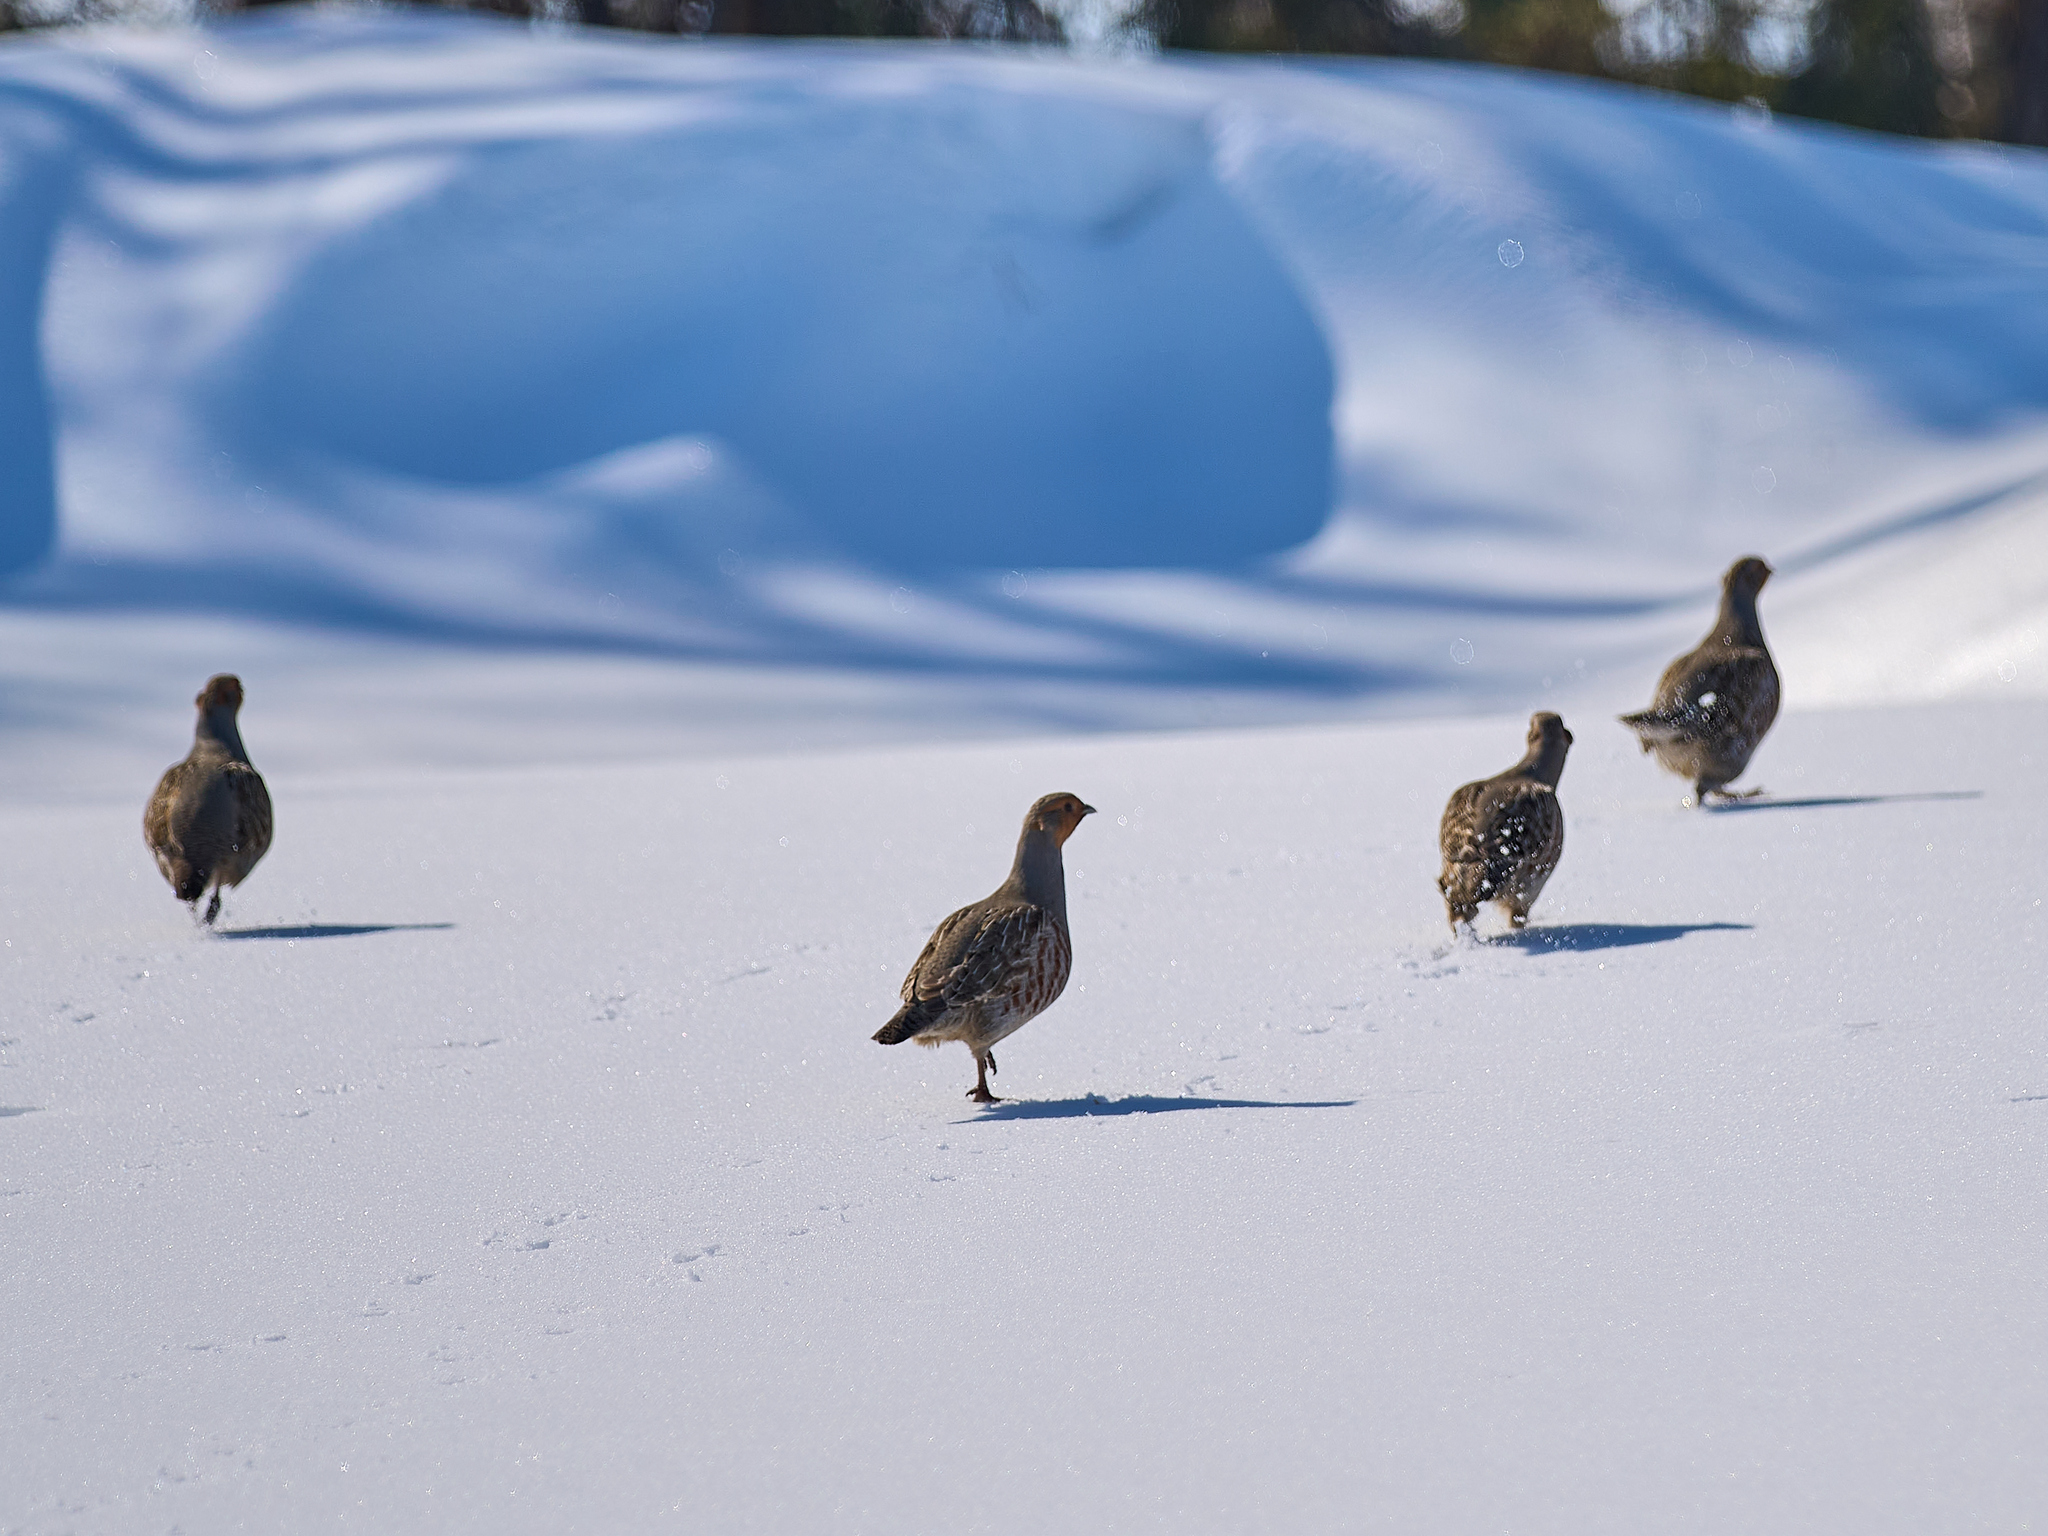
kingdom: Animalia
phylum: Chordata
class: Aves
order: Galliformes
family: Phasianidae
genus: Perdix
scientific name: Perdix perdix
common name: Grey partridge
